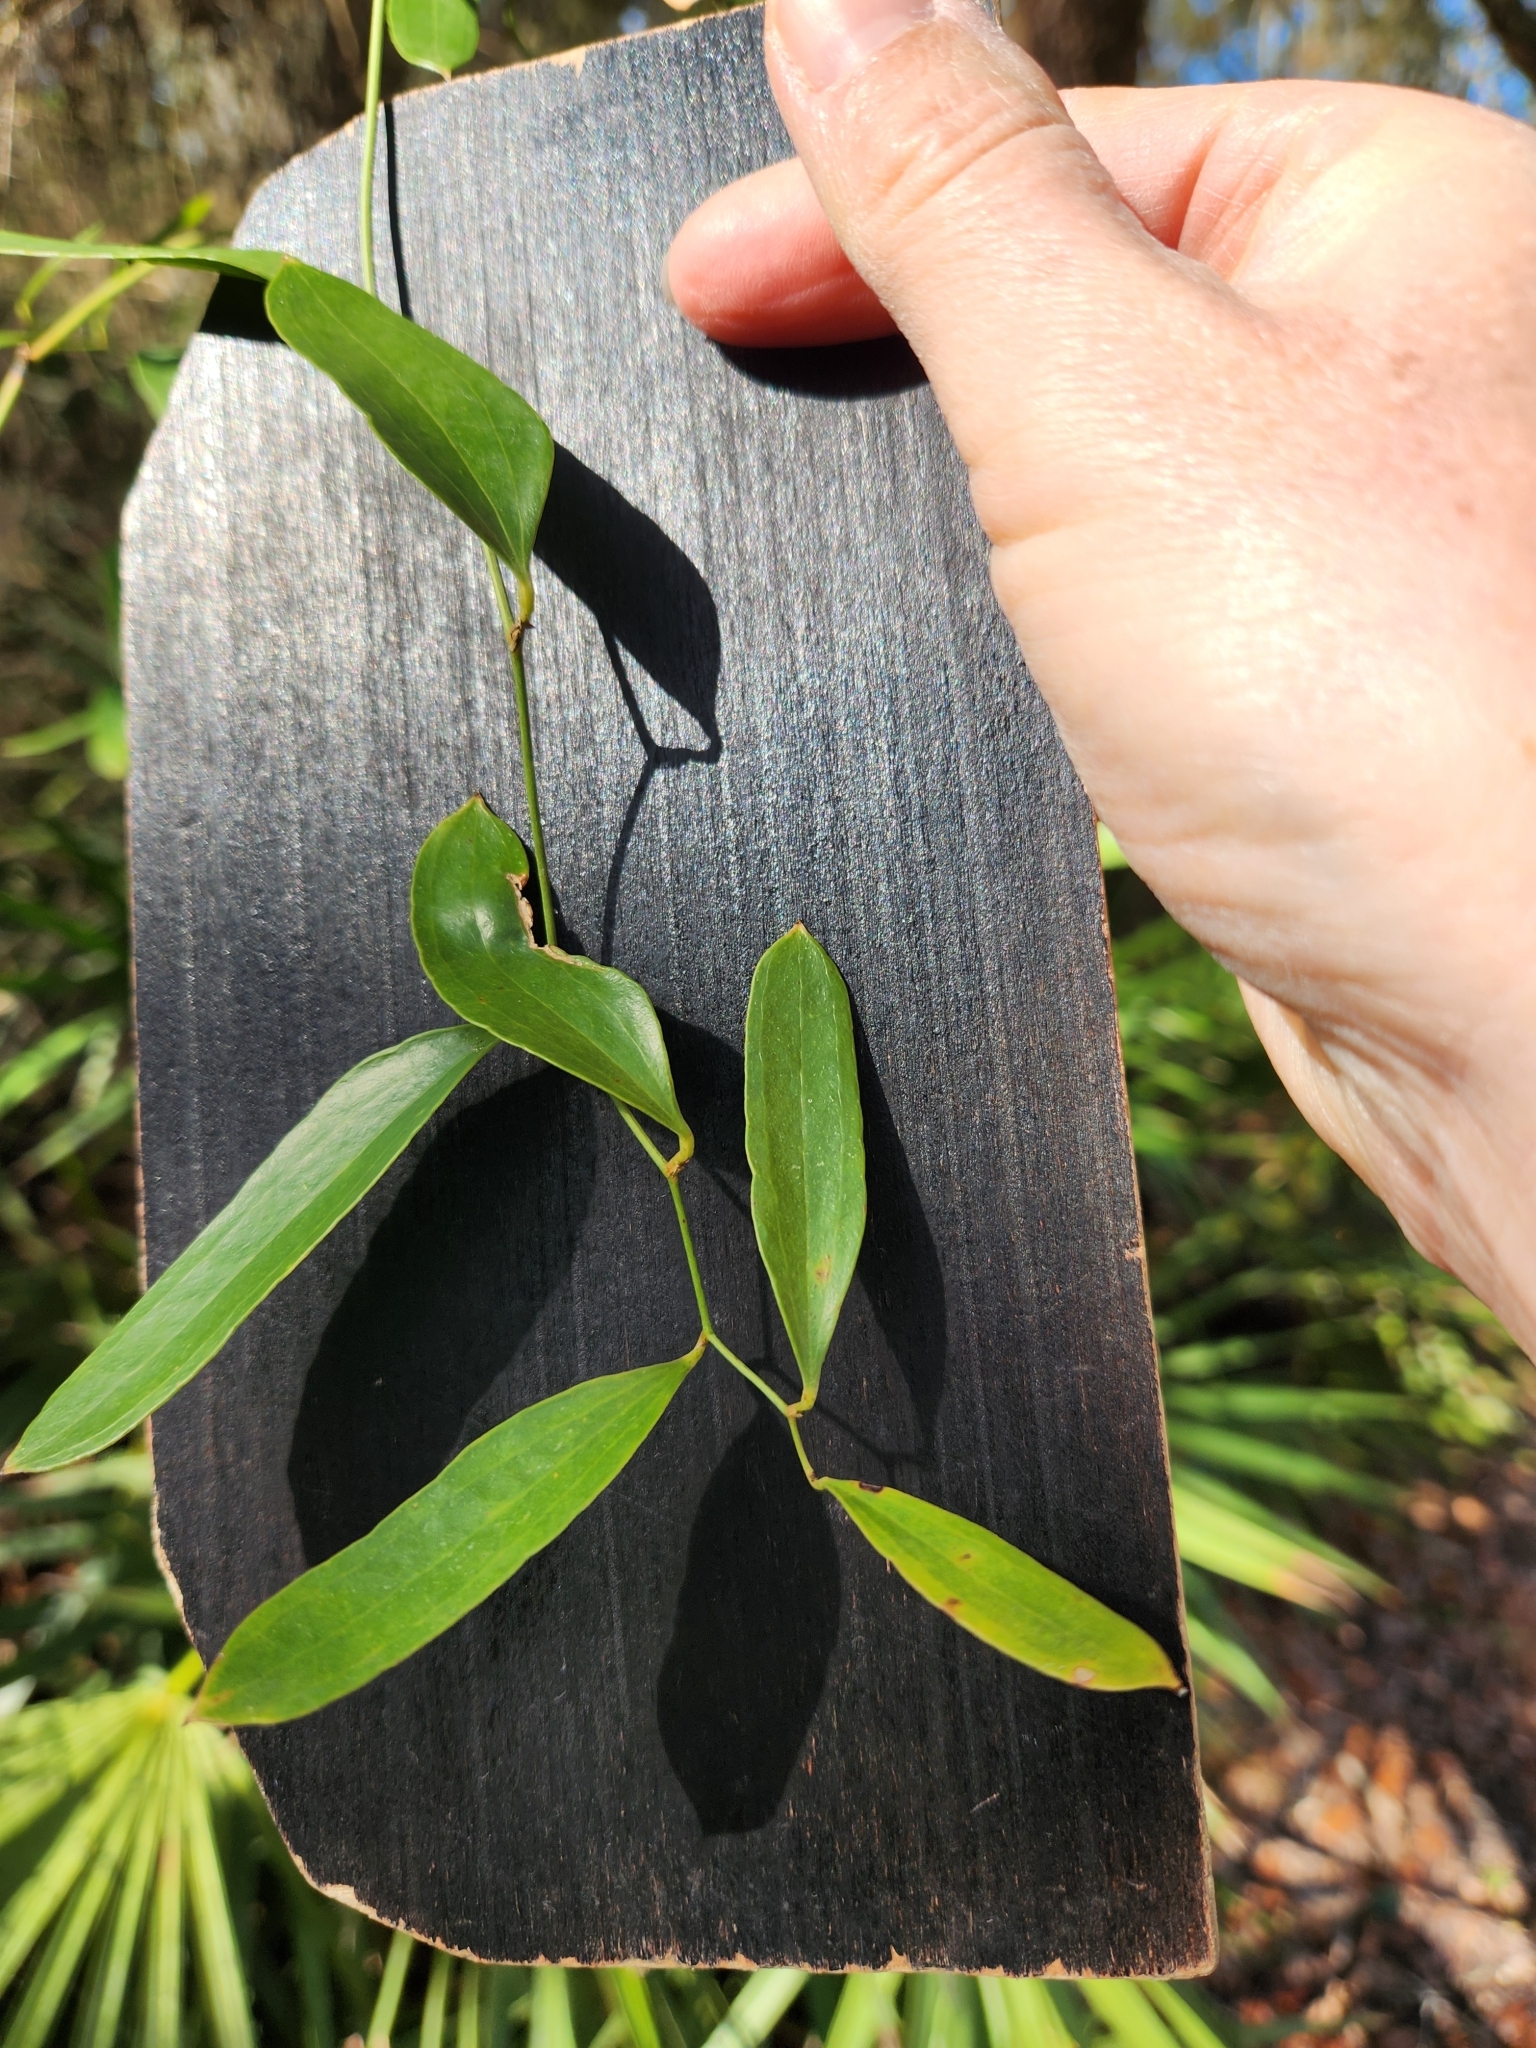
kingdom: Plantae
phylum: Tracheophyta
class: Liliopsida
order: Liliales
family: Smilacaceae
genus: Smilax
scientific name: Smilax auriculata
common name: Wild bamboo
